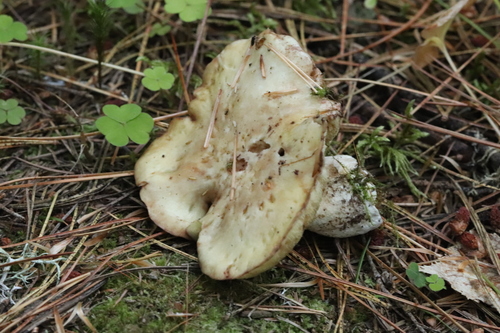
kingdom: Fungi
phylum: Basidiomycota
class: Agaricomycetes
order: Boletales
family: Suillaceae
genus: Suillus
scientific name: Suillus placidus
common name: Slippery white bolete
